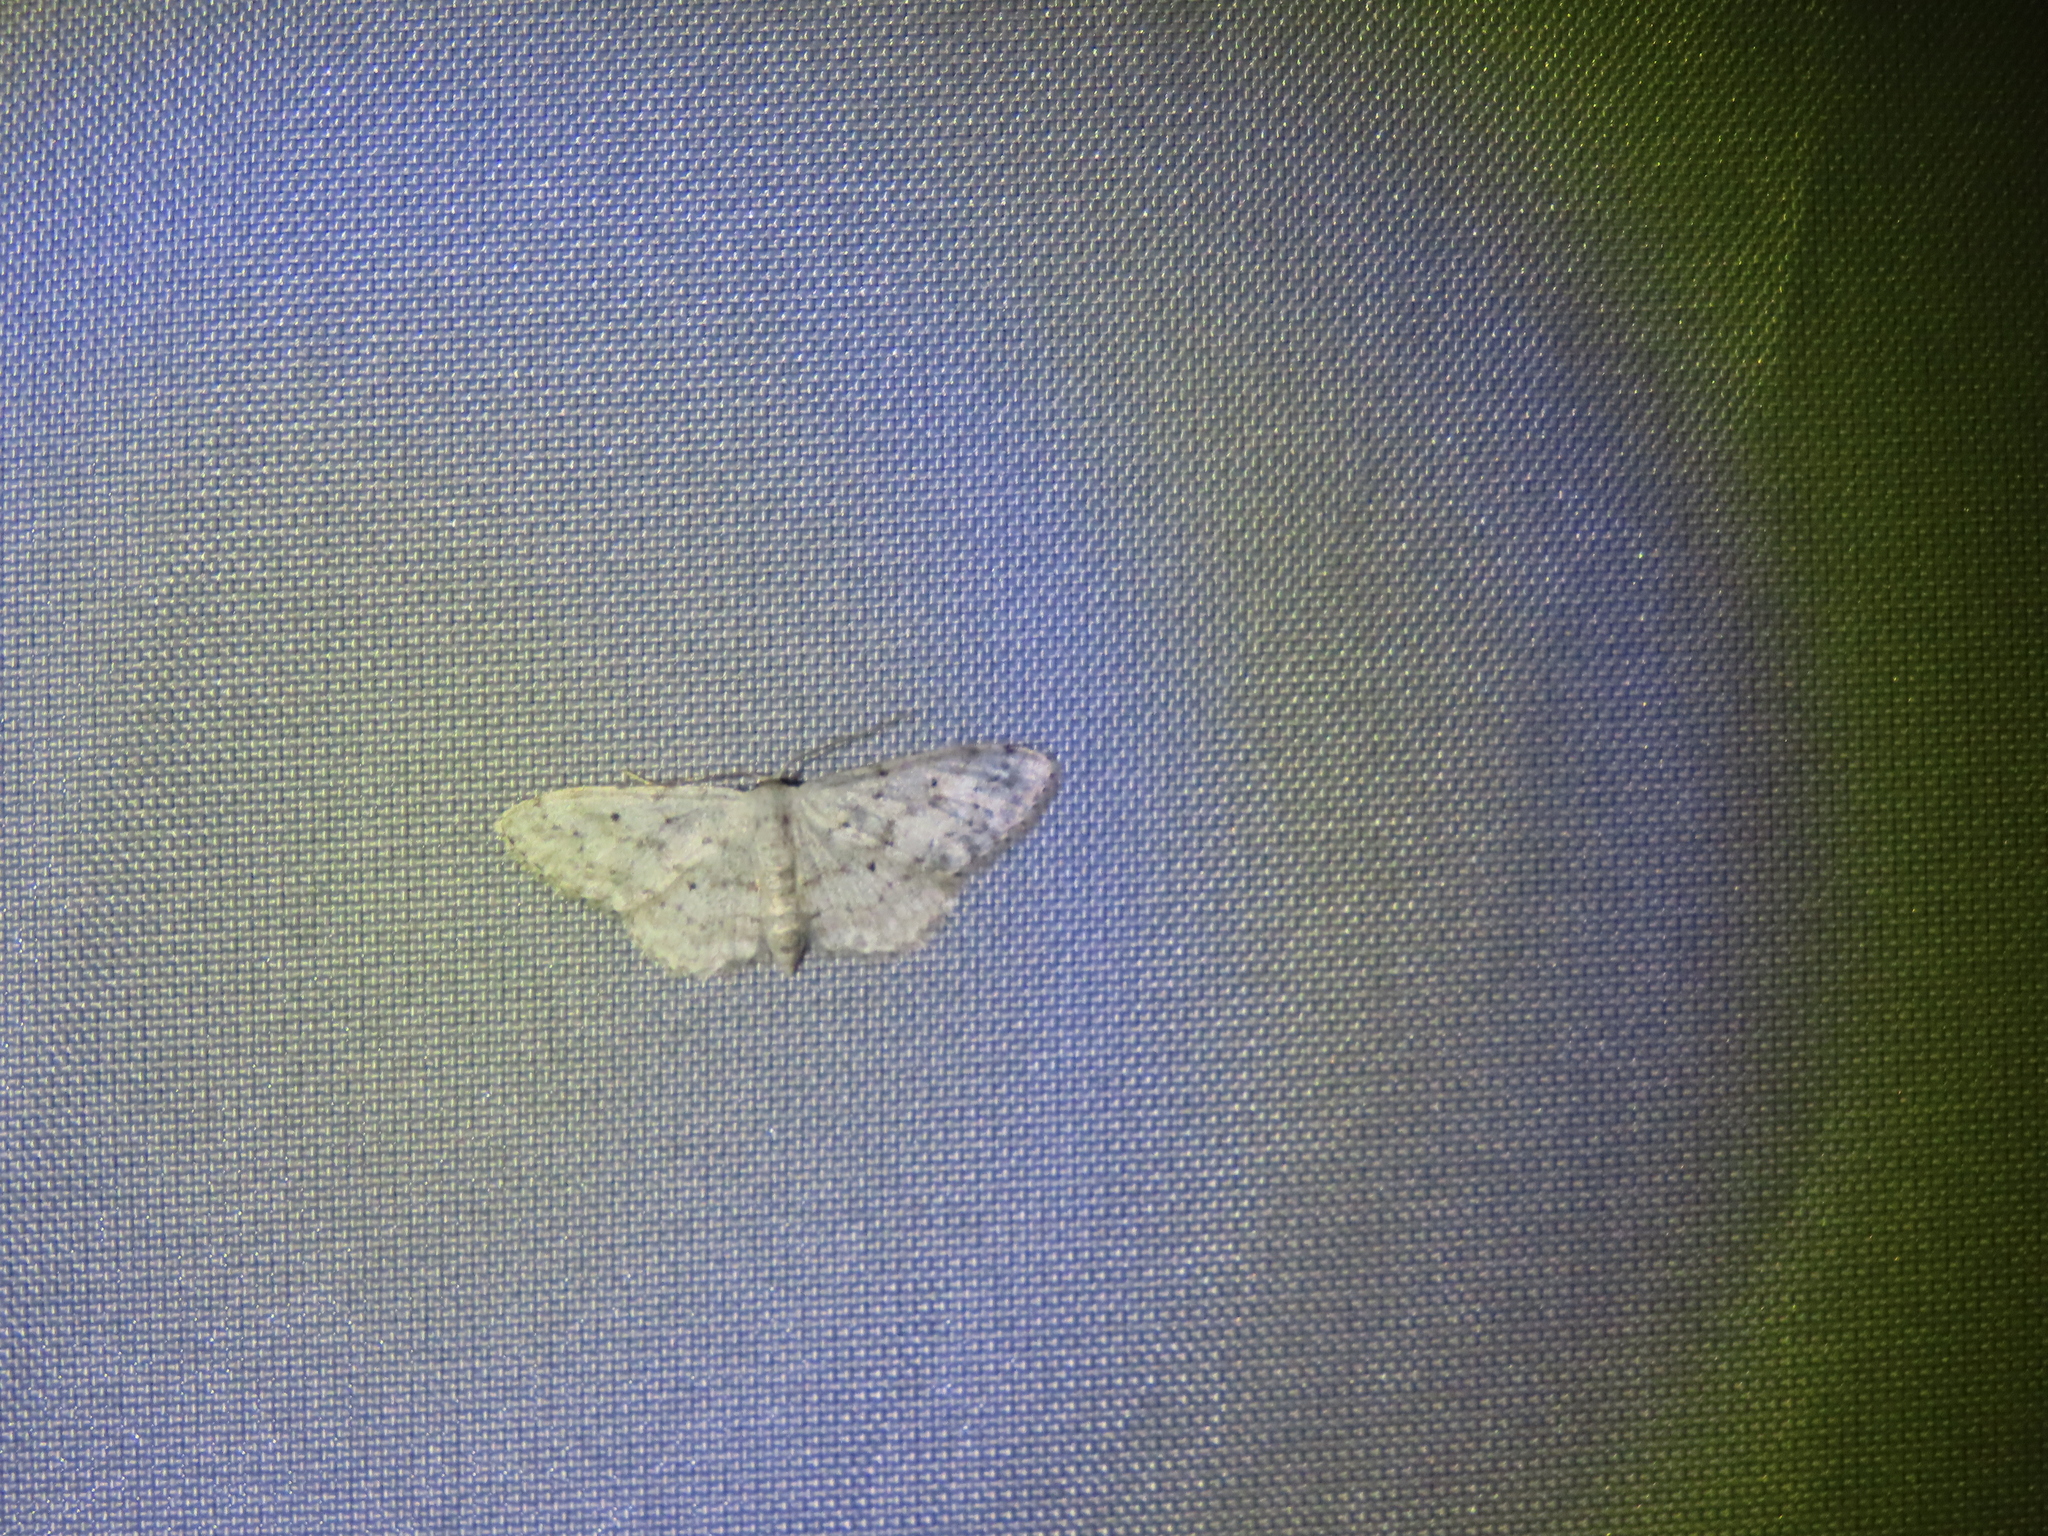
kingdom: Animalia
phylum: Arthropoda
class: Insecta
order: Lepidoptera
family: Geometridae
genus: Idaea
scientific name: Idaea seriata
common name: Small dusty wave
